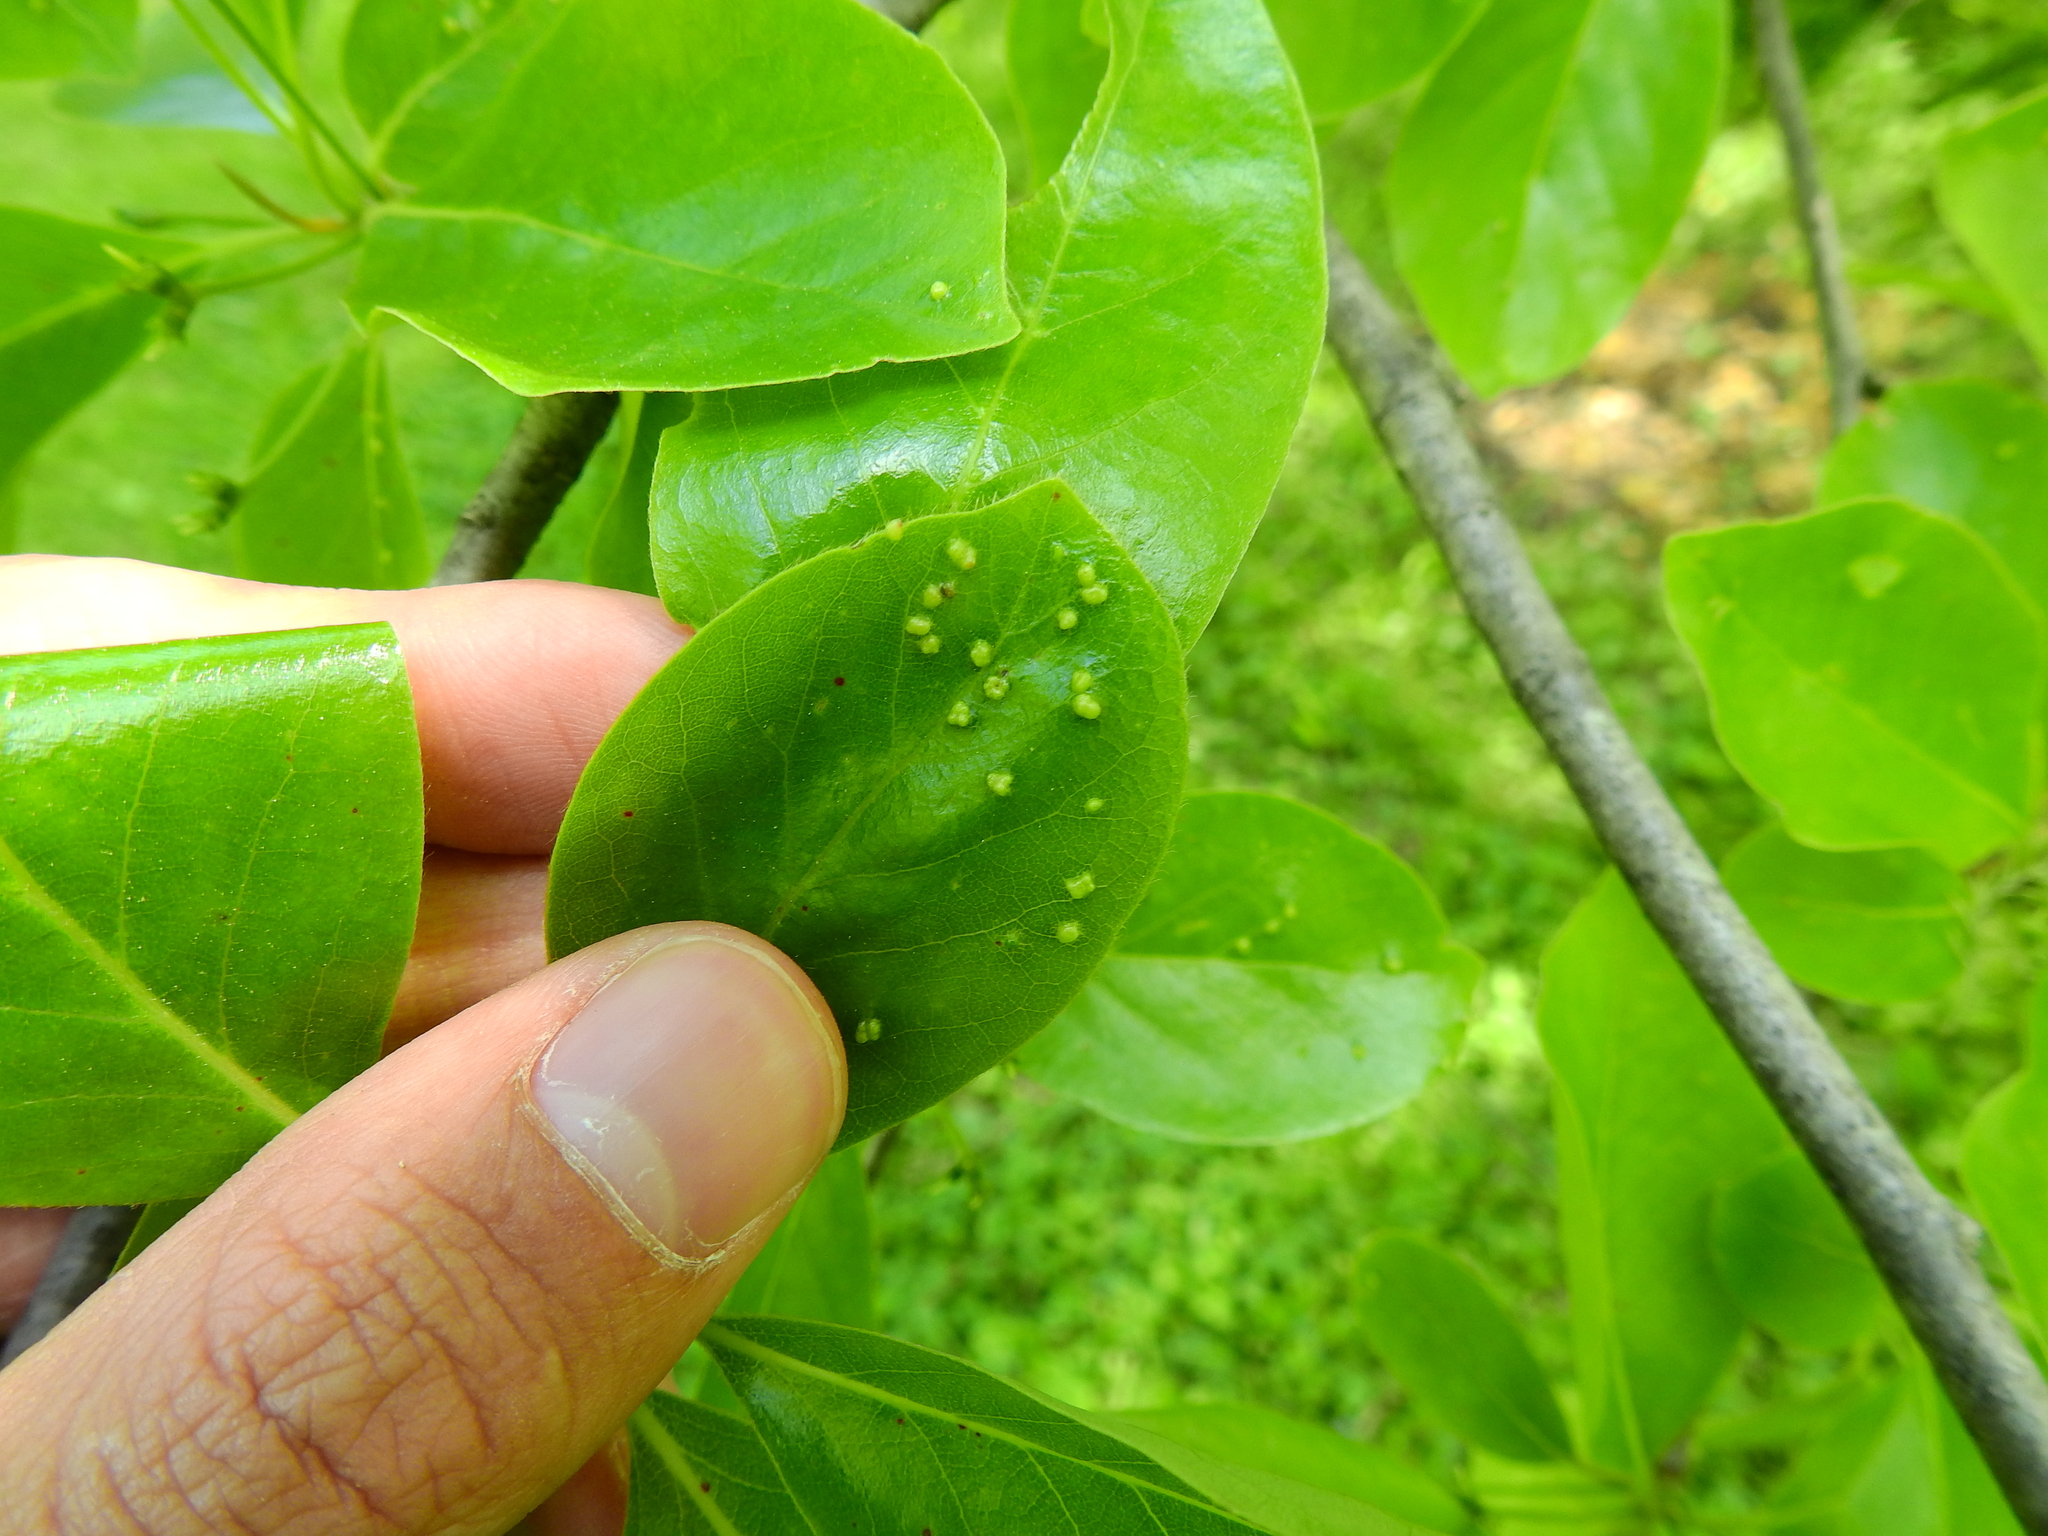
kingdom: Animalia
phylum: Arthropoda
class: Arachnida
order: Trombidiformes
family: Eriophyidae
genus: Aceria
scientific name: Aceria
